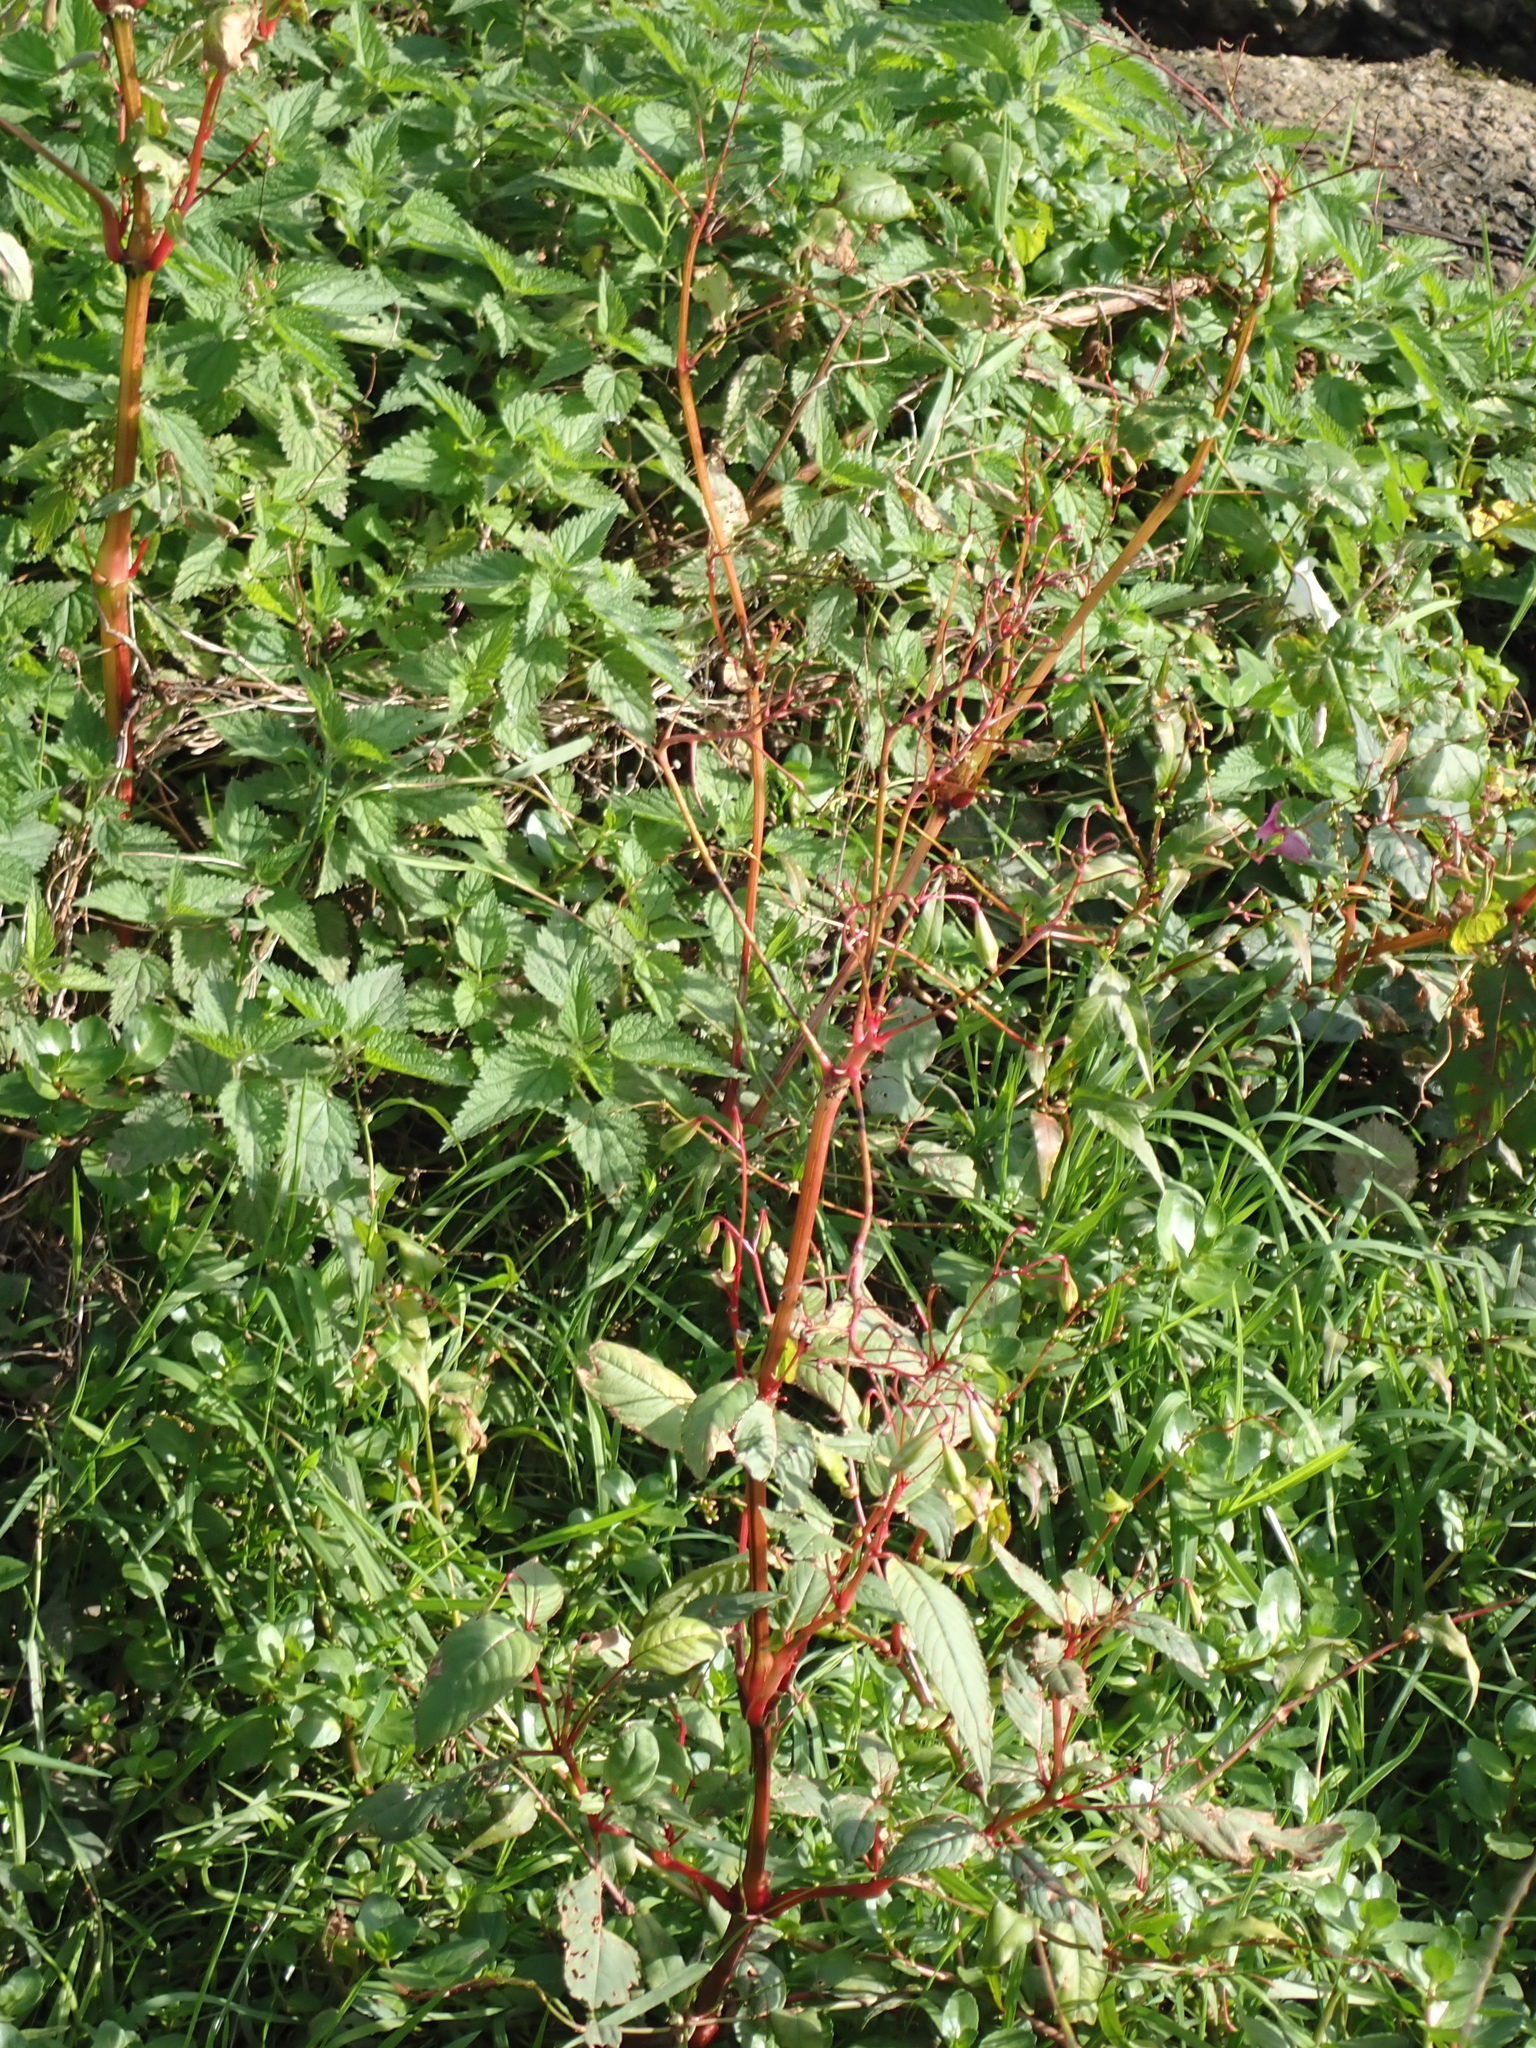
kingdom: Plantae
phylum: Tracheophyta
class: Magnoliopsida
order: Ericales
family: Balsaminaceae
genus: Impatiens
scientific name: Impatiens glandulifera
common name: Himalayan balsam
